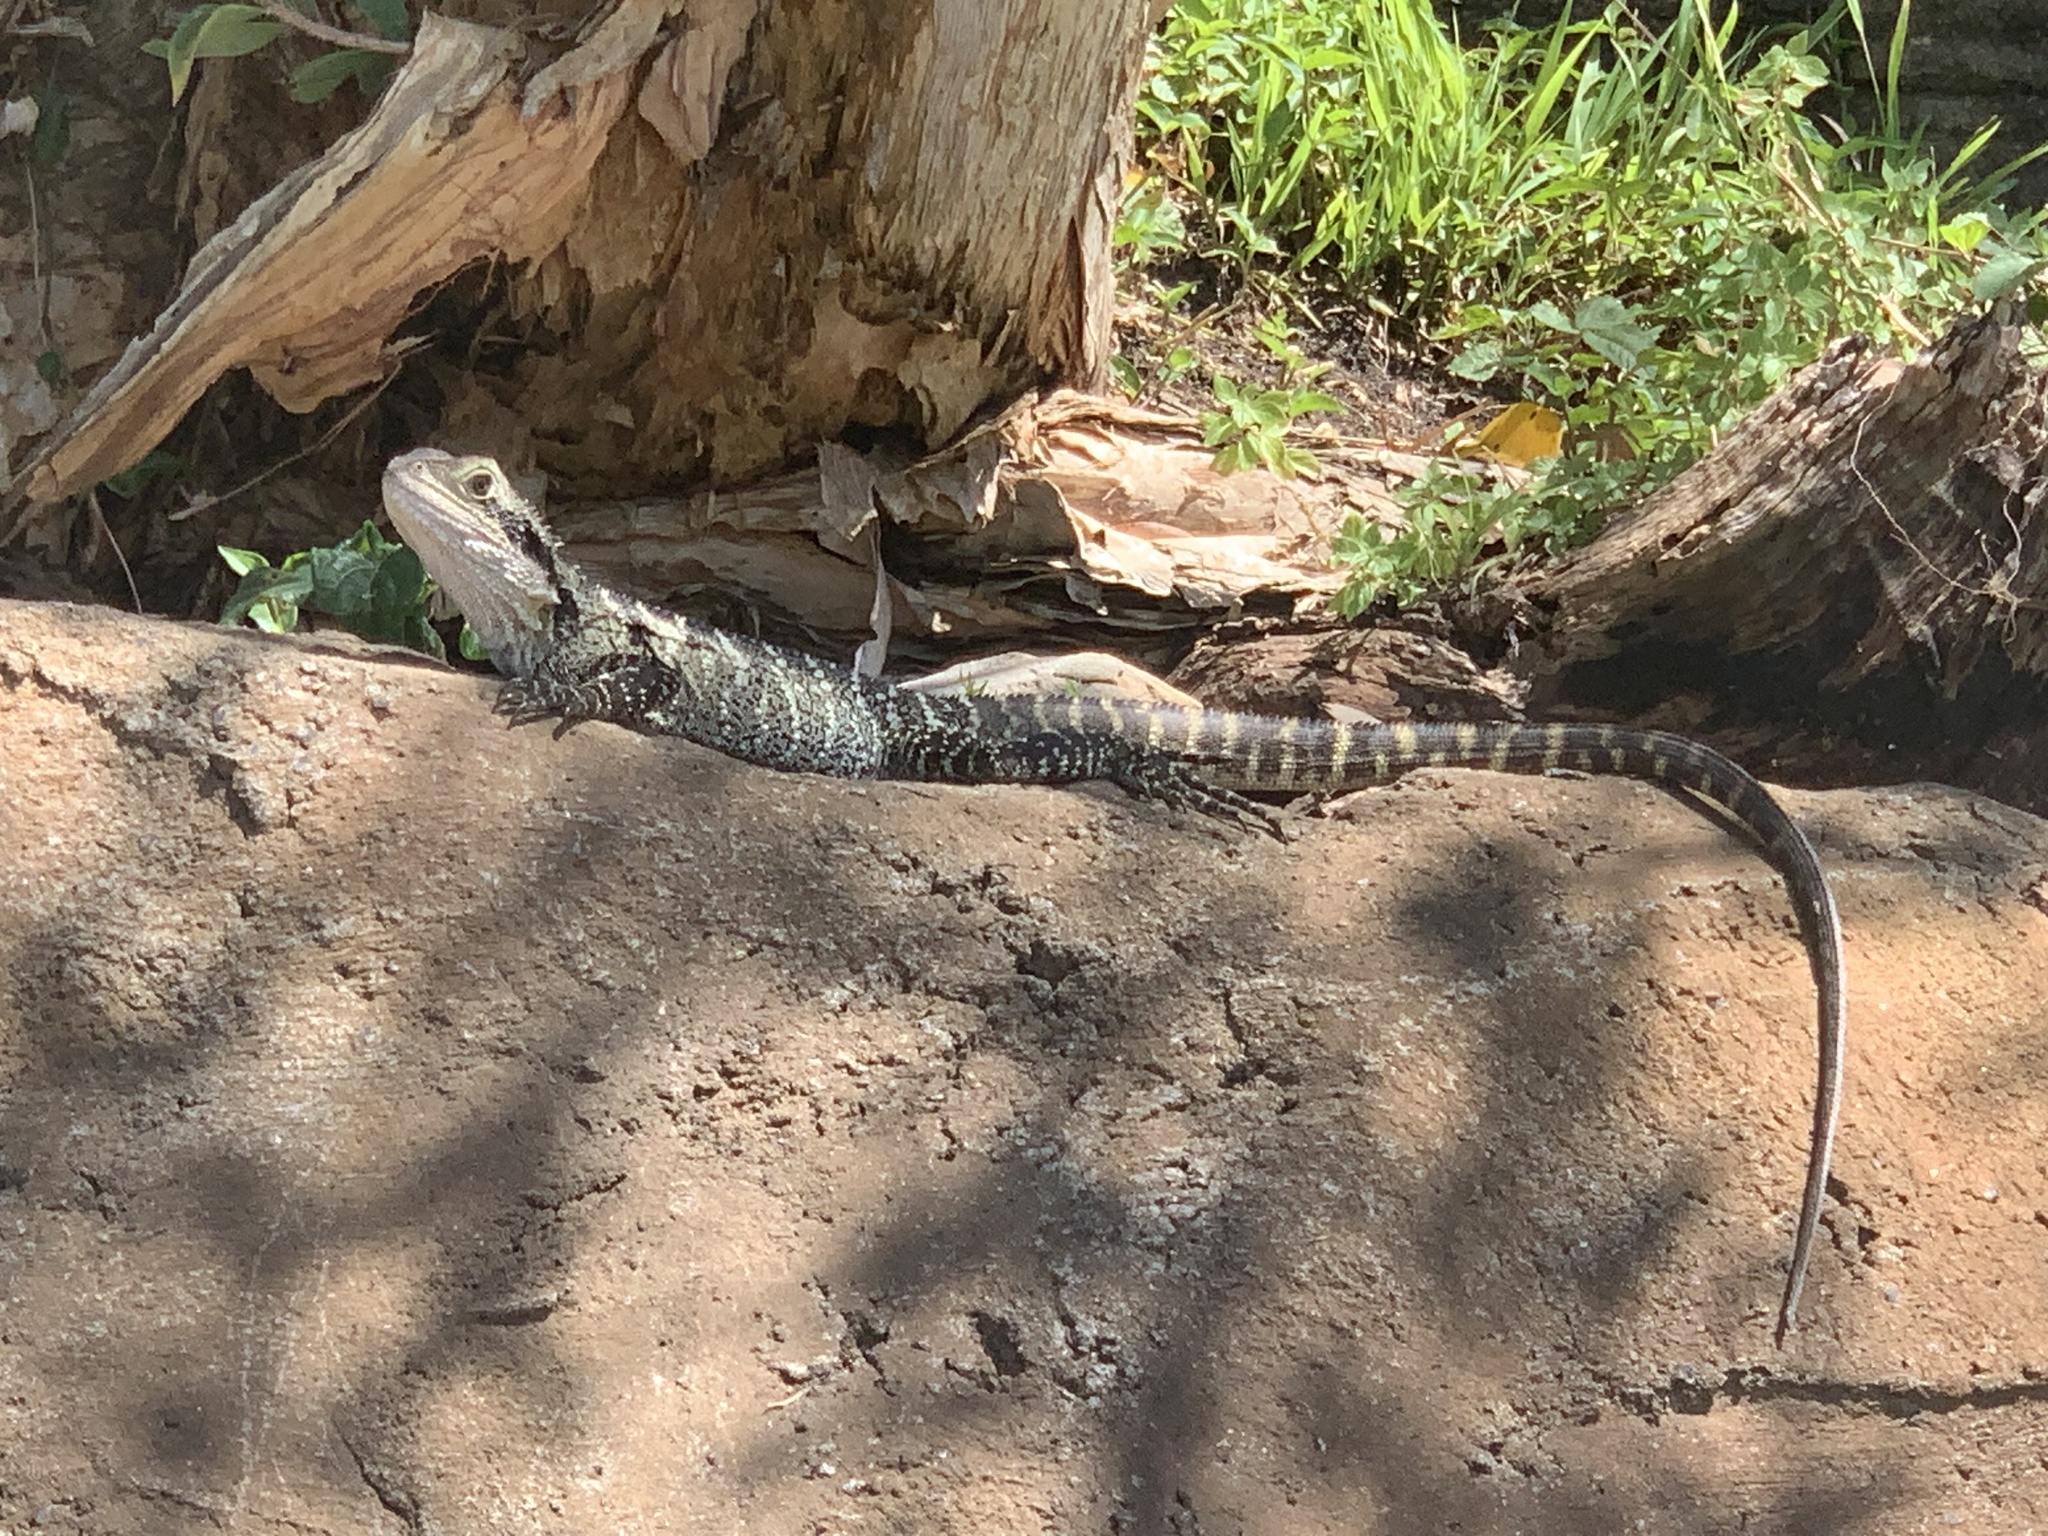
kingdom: Animalia
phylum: Chordata
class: Squamata
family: Agamidae
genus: Intellagama
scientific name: Intellagama lesueurii
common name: Eastern water dragon
